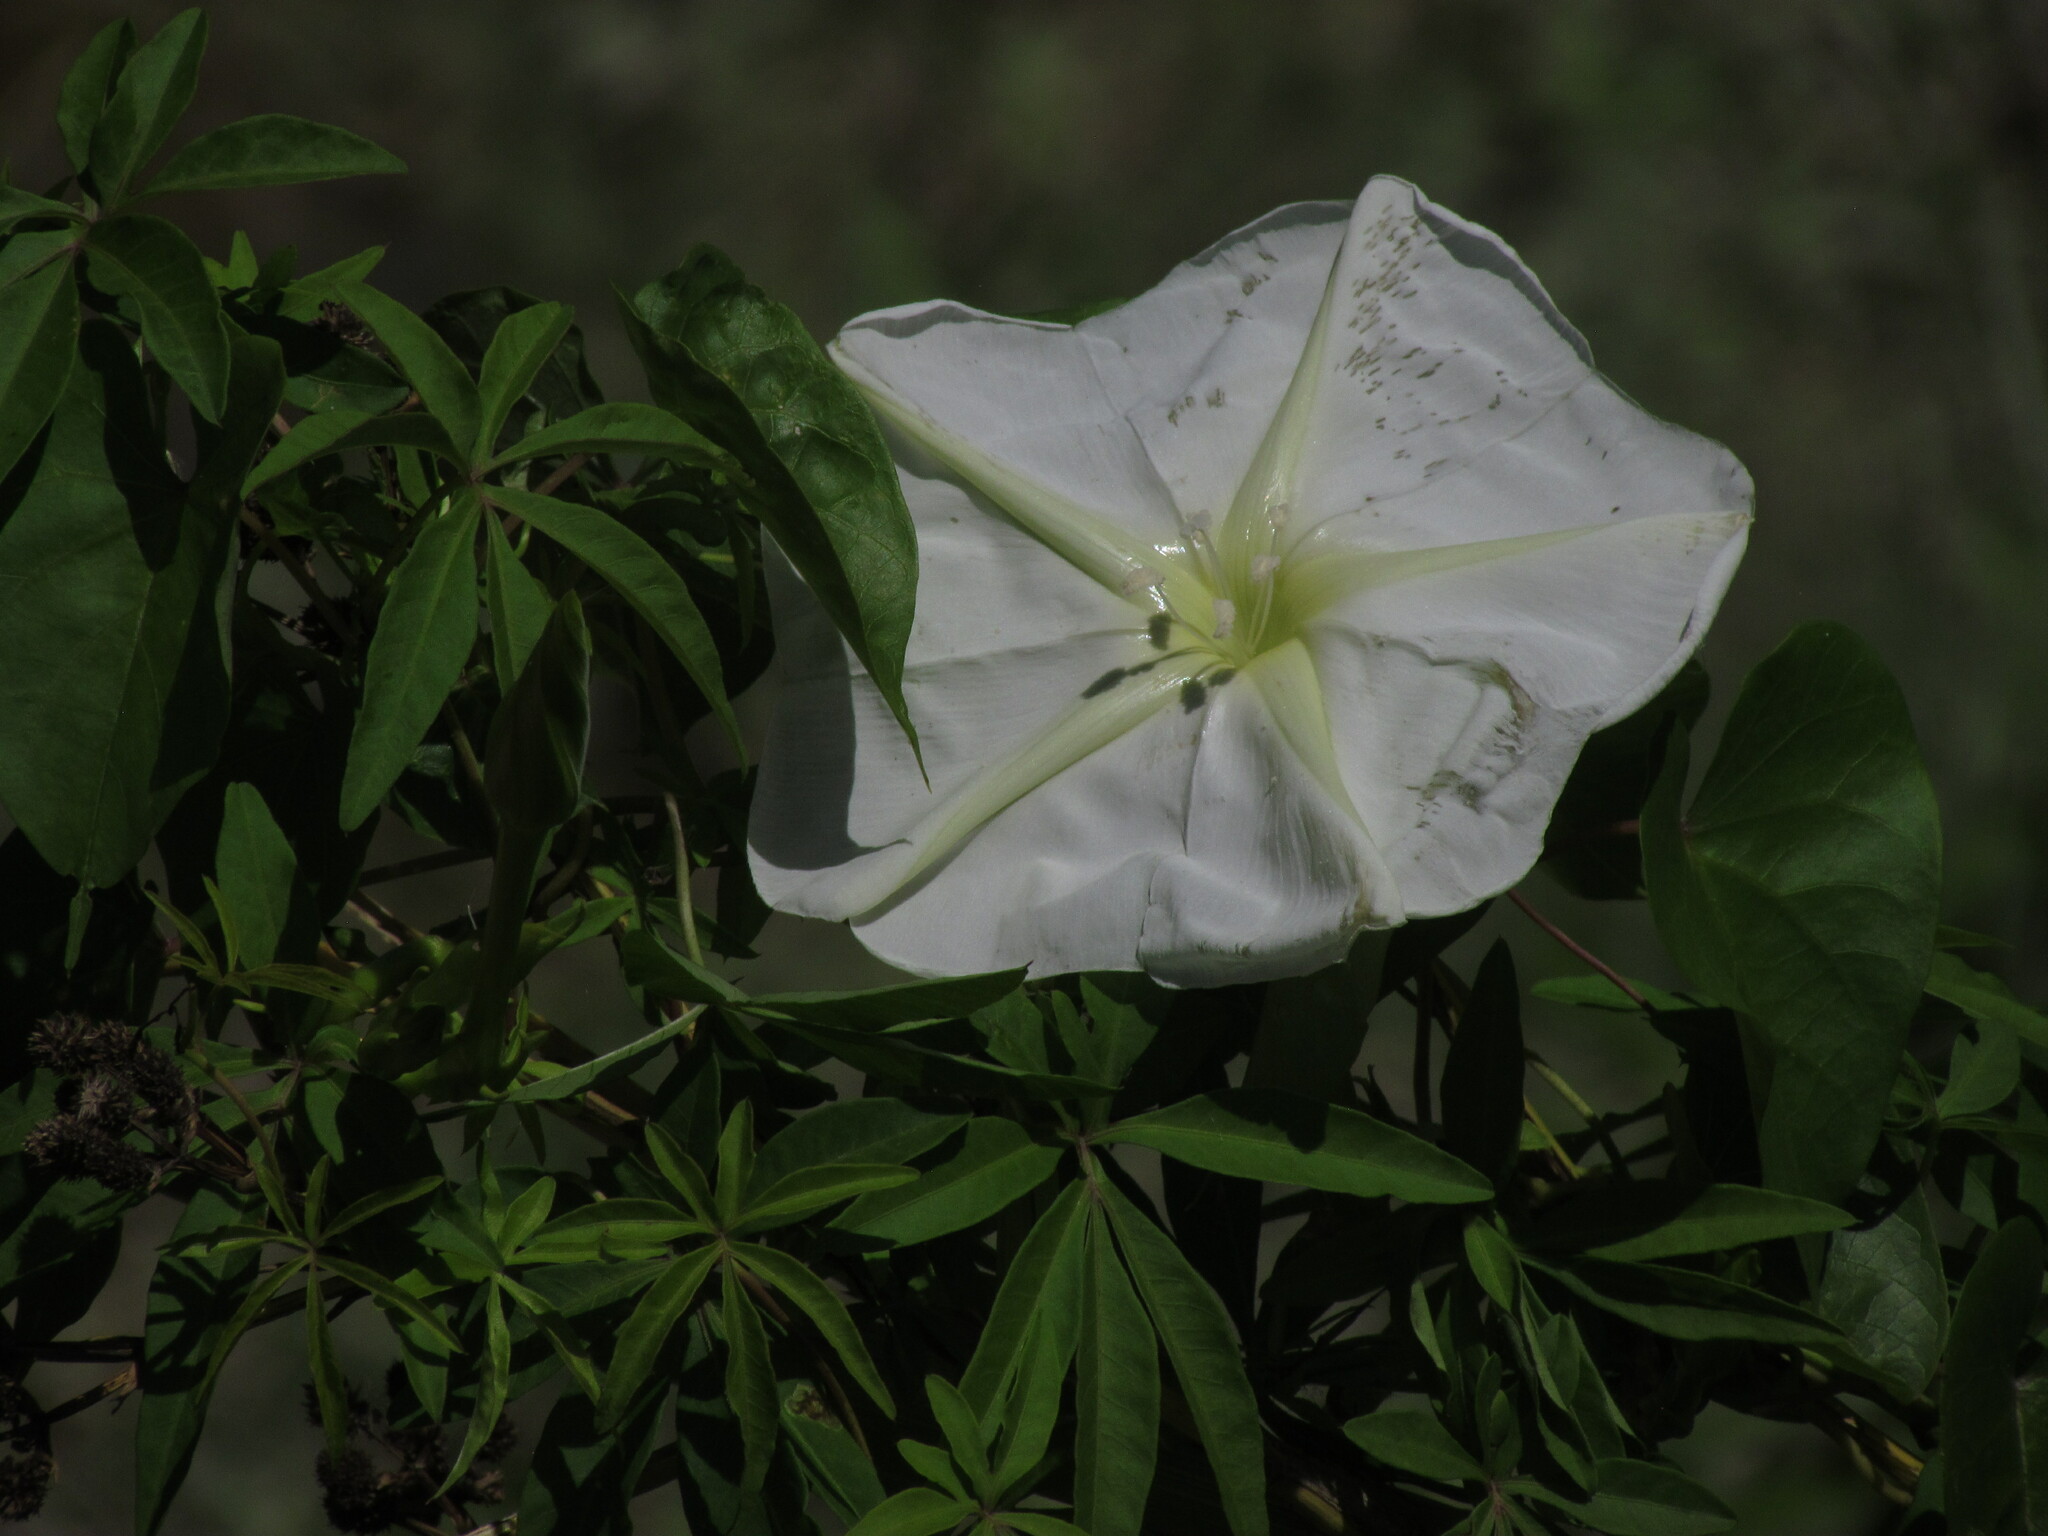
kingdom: Plantae
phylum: Tracheophyta
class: Magnoliopsida
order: Solanales
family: Convolvulaceae
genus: Ipomoea
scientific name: Ipomoea alba
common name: Moonflower
